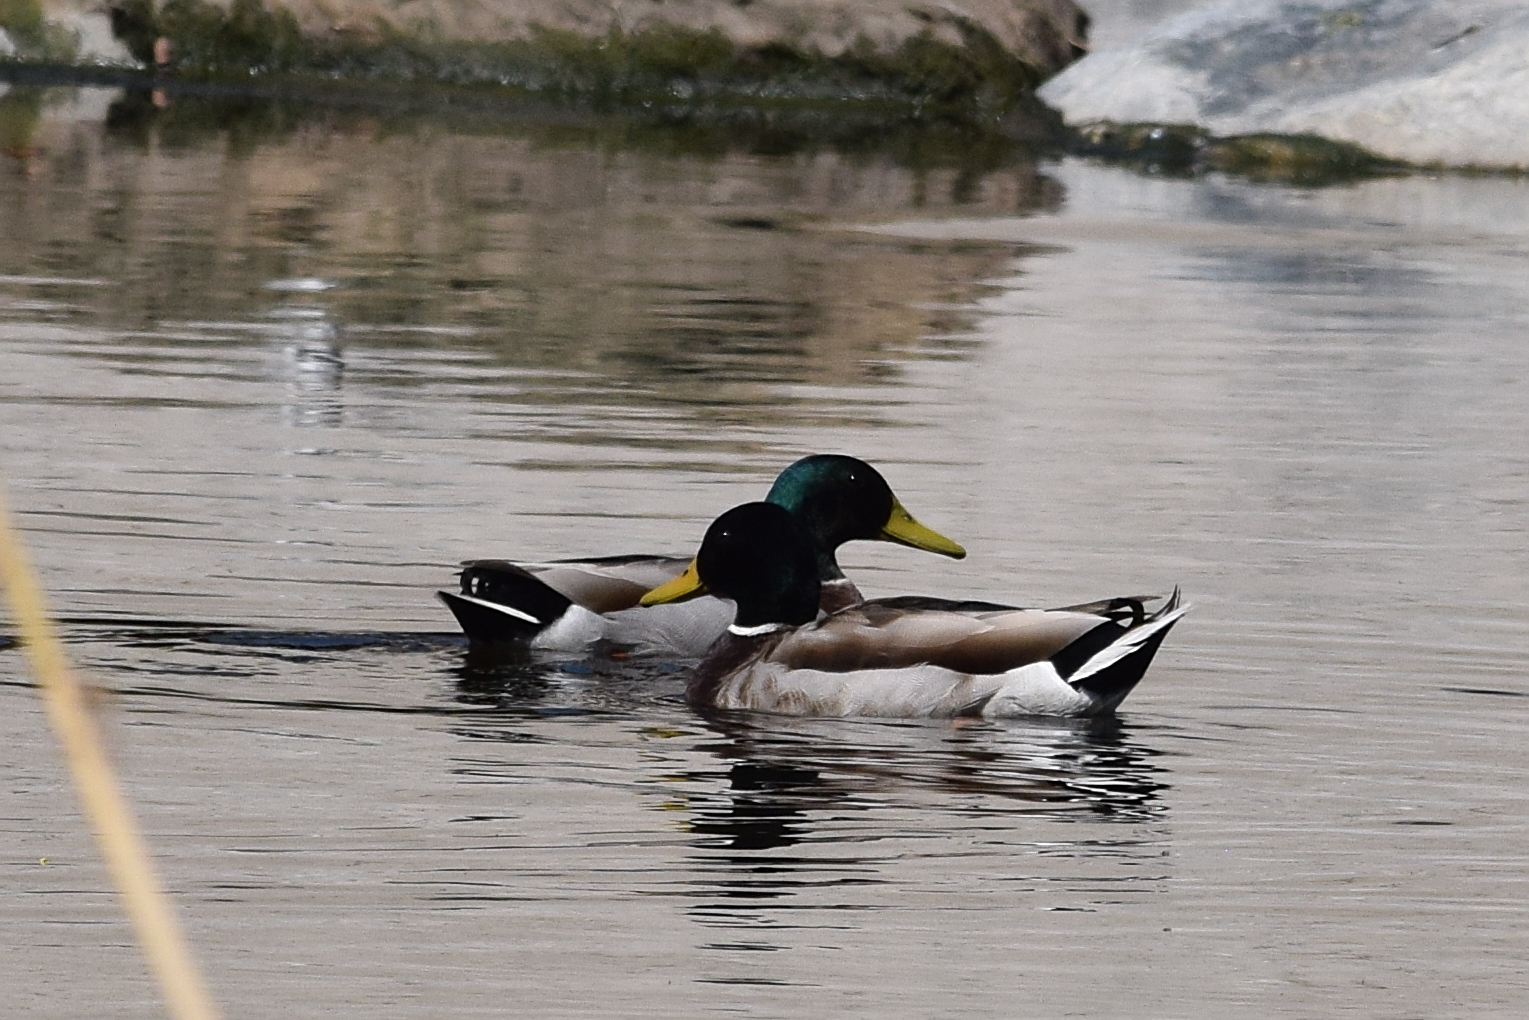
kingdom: Animalia
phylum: Chordata
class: Aves
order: Anseriformes
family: Anatidae
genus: Anas
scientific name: Anas platyrhynchos
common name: Mallard
